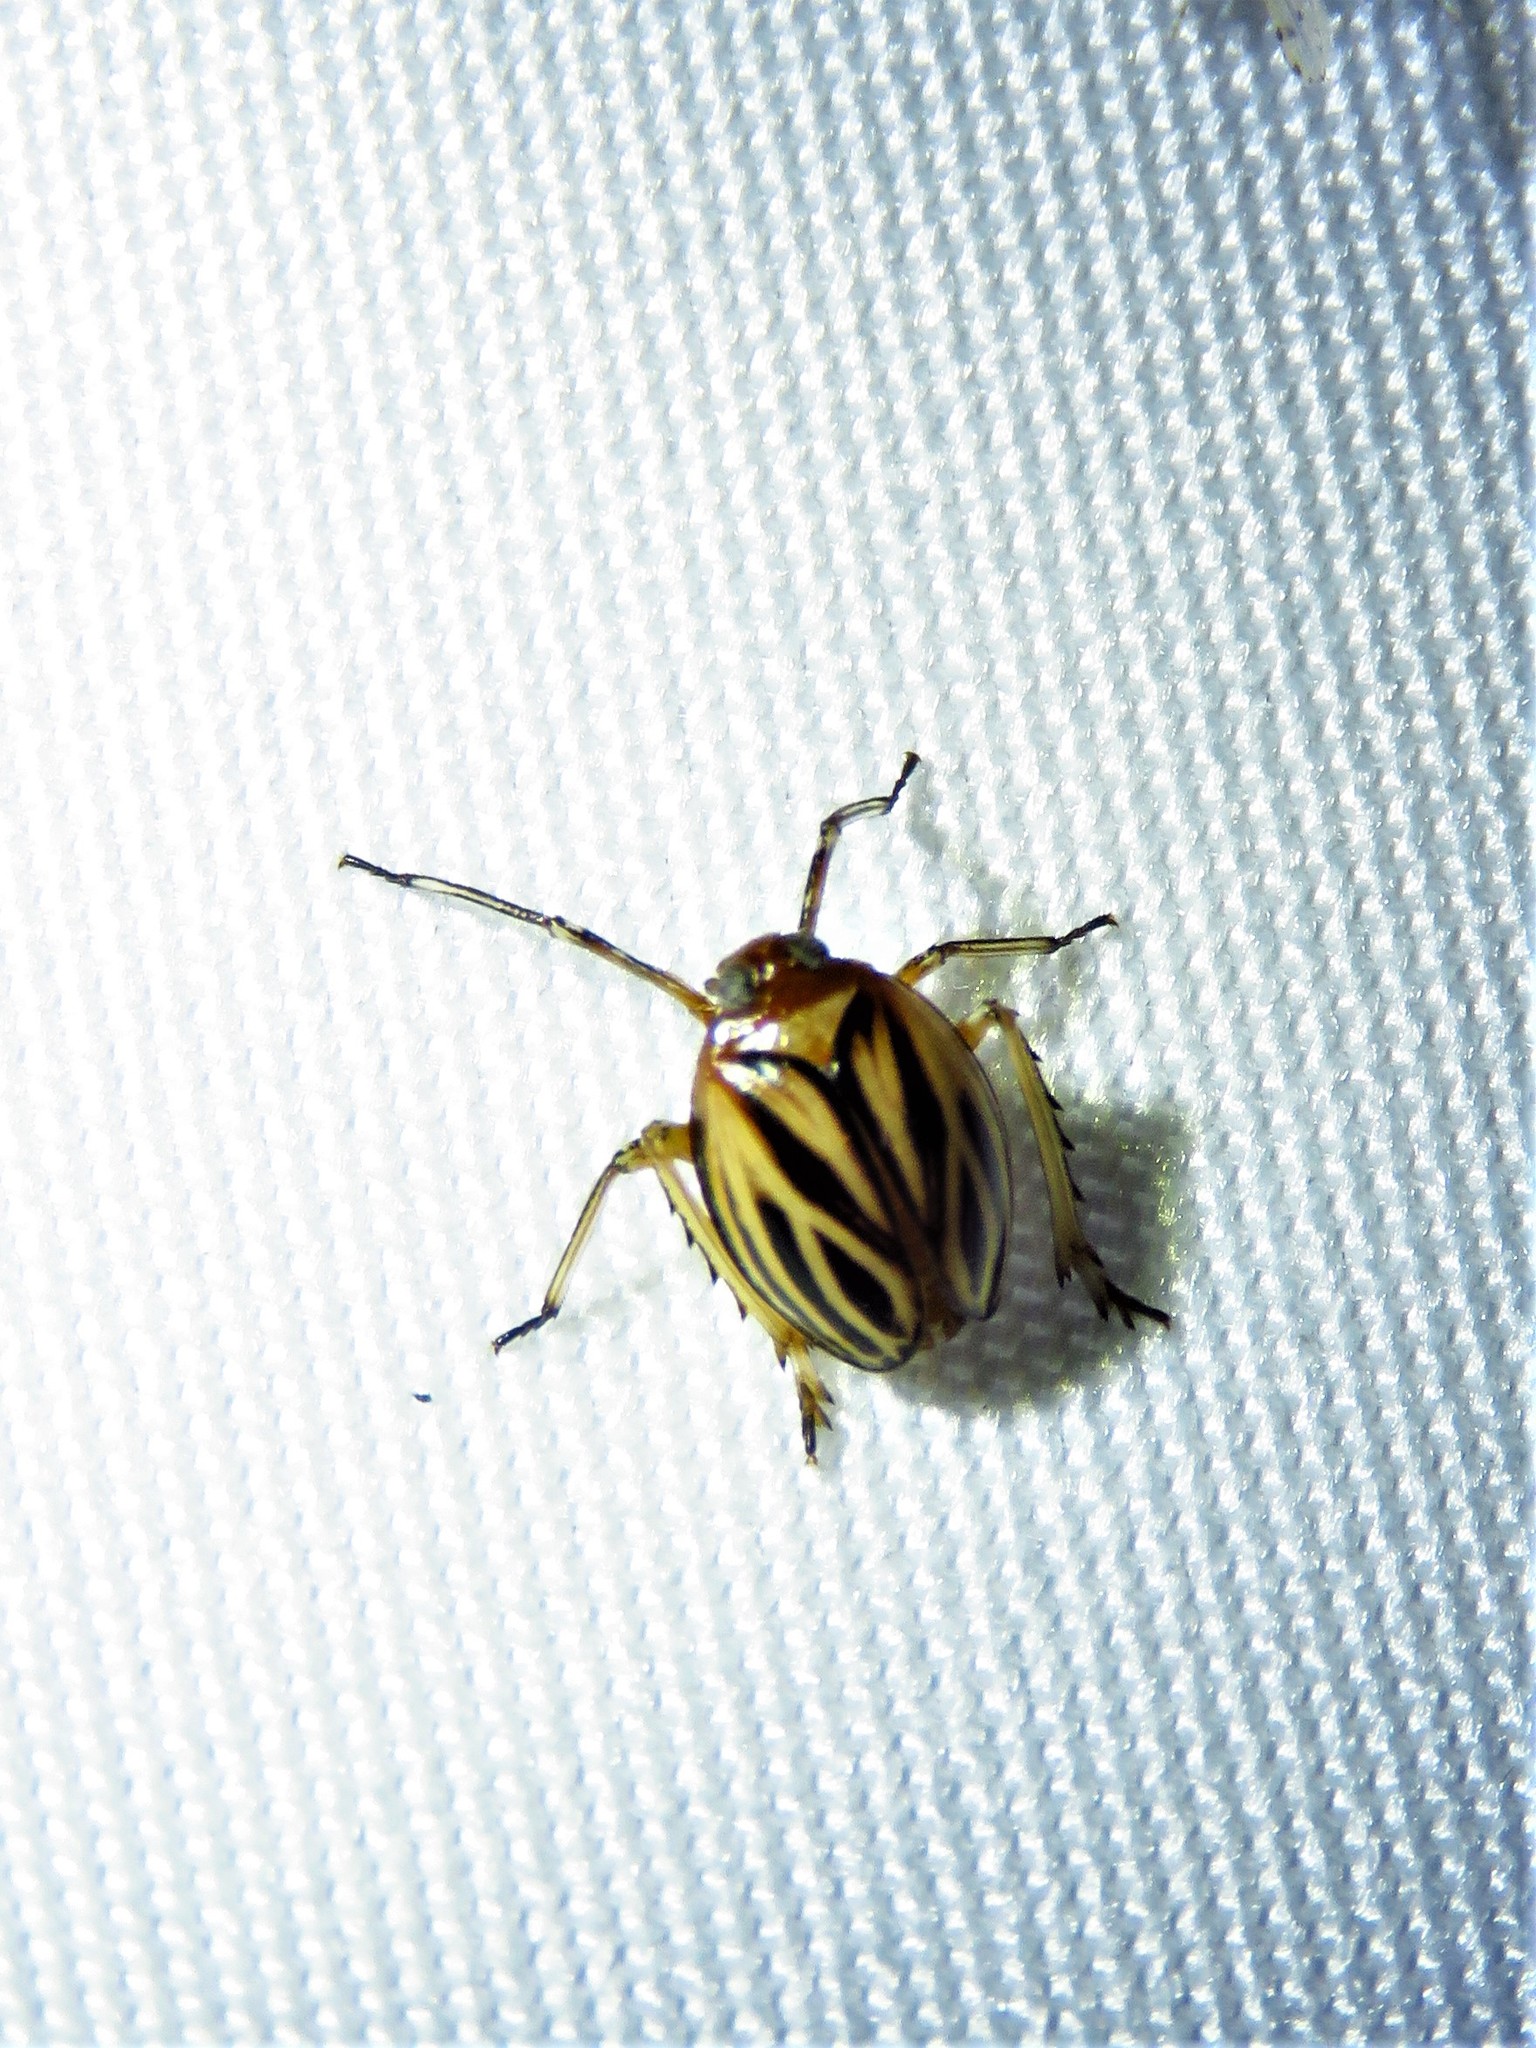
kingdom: Animalia
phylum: Arthropoda
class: Insecta
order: Hemiptera
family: Achilidae
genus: Isodaemon
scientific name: Isodaemon orontes
